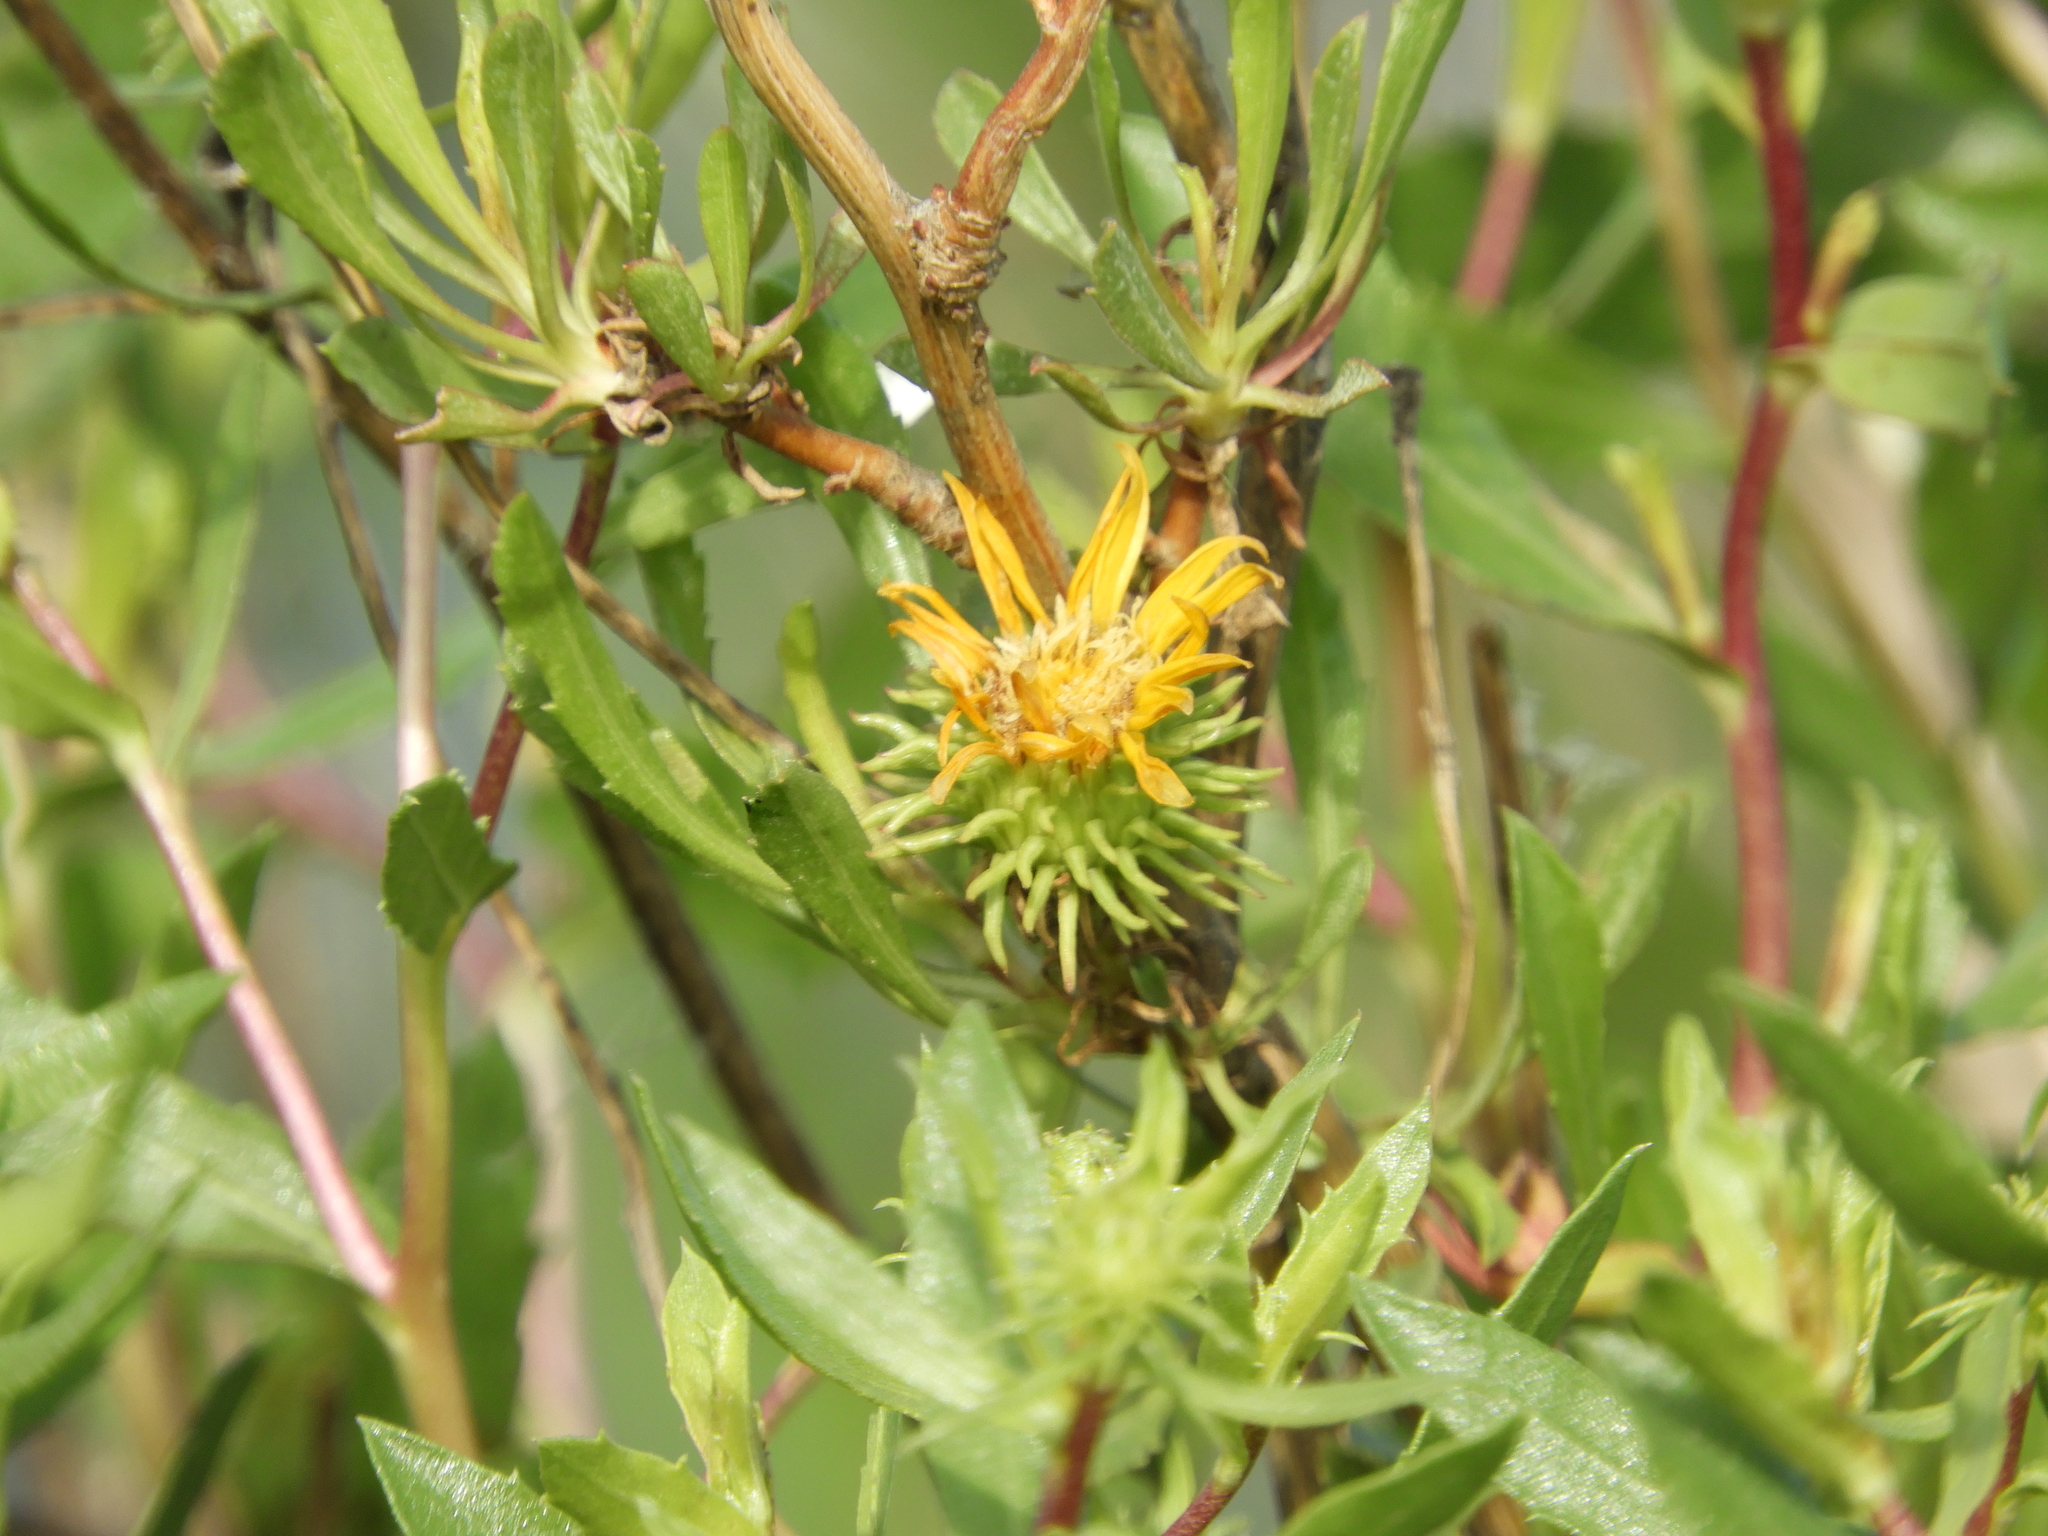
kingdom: Plantae
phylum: Tracheophyta
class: Magnoliopsida
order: Asterales
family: Asteraceae
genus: Grindelia
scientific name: Grindelia hirsutula
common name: Hairy gumweed
